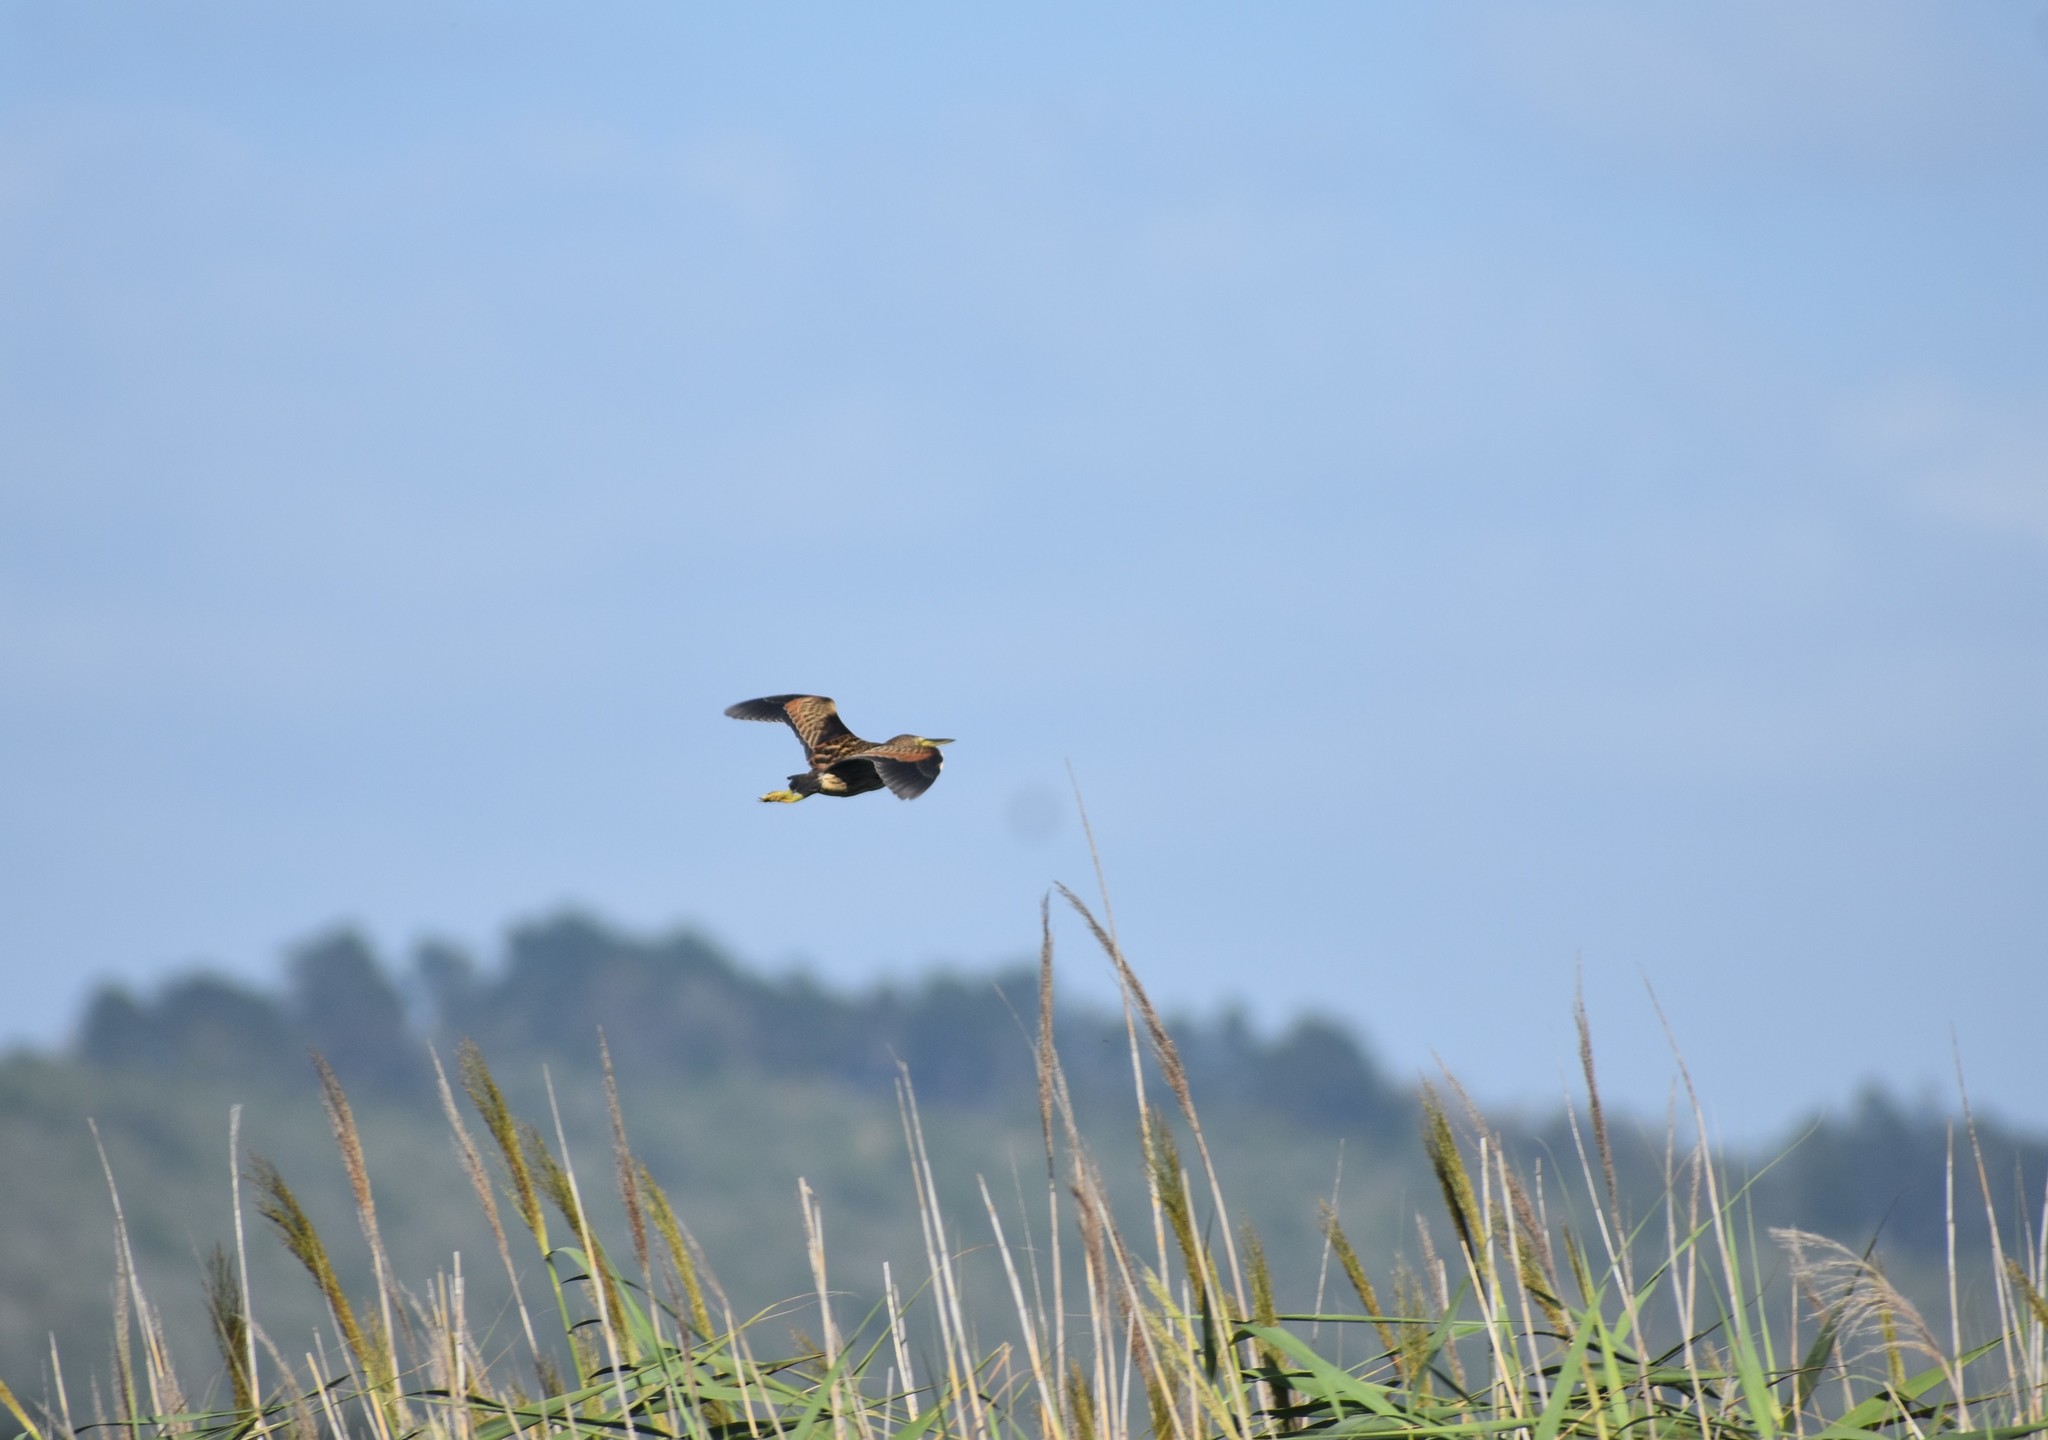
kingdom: Animalia
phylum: Chordata
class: Aves
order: Pelecaniformes
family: Ardeidae
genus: Ixobrychus
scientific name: Ixobrychus minutus
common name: Little bittern
